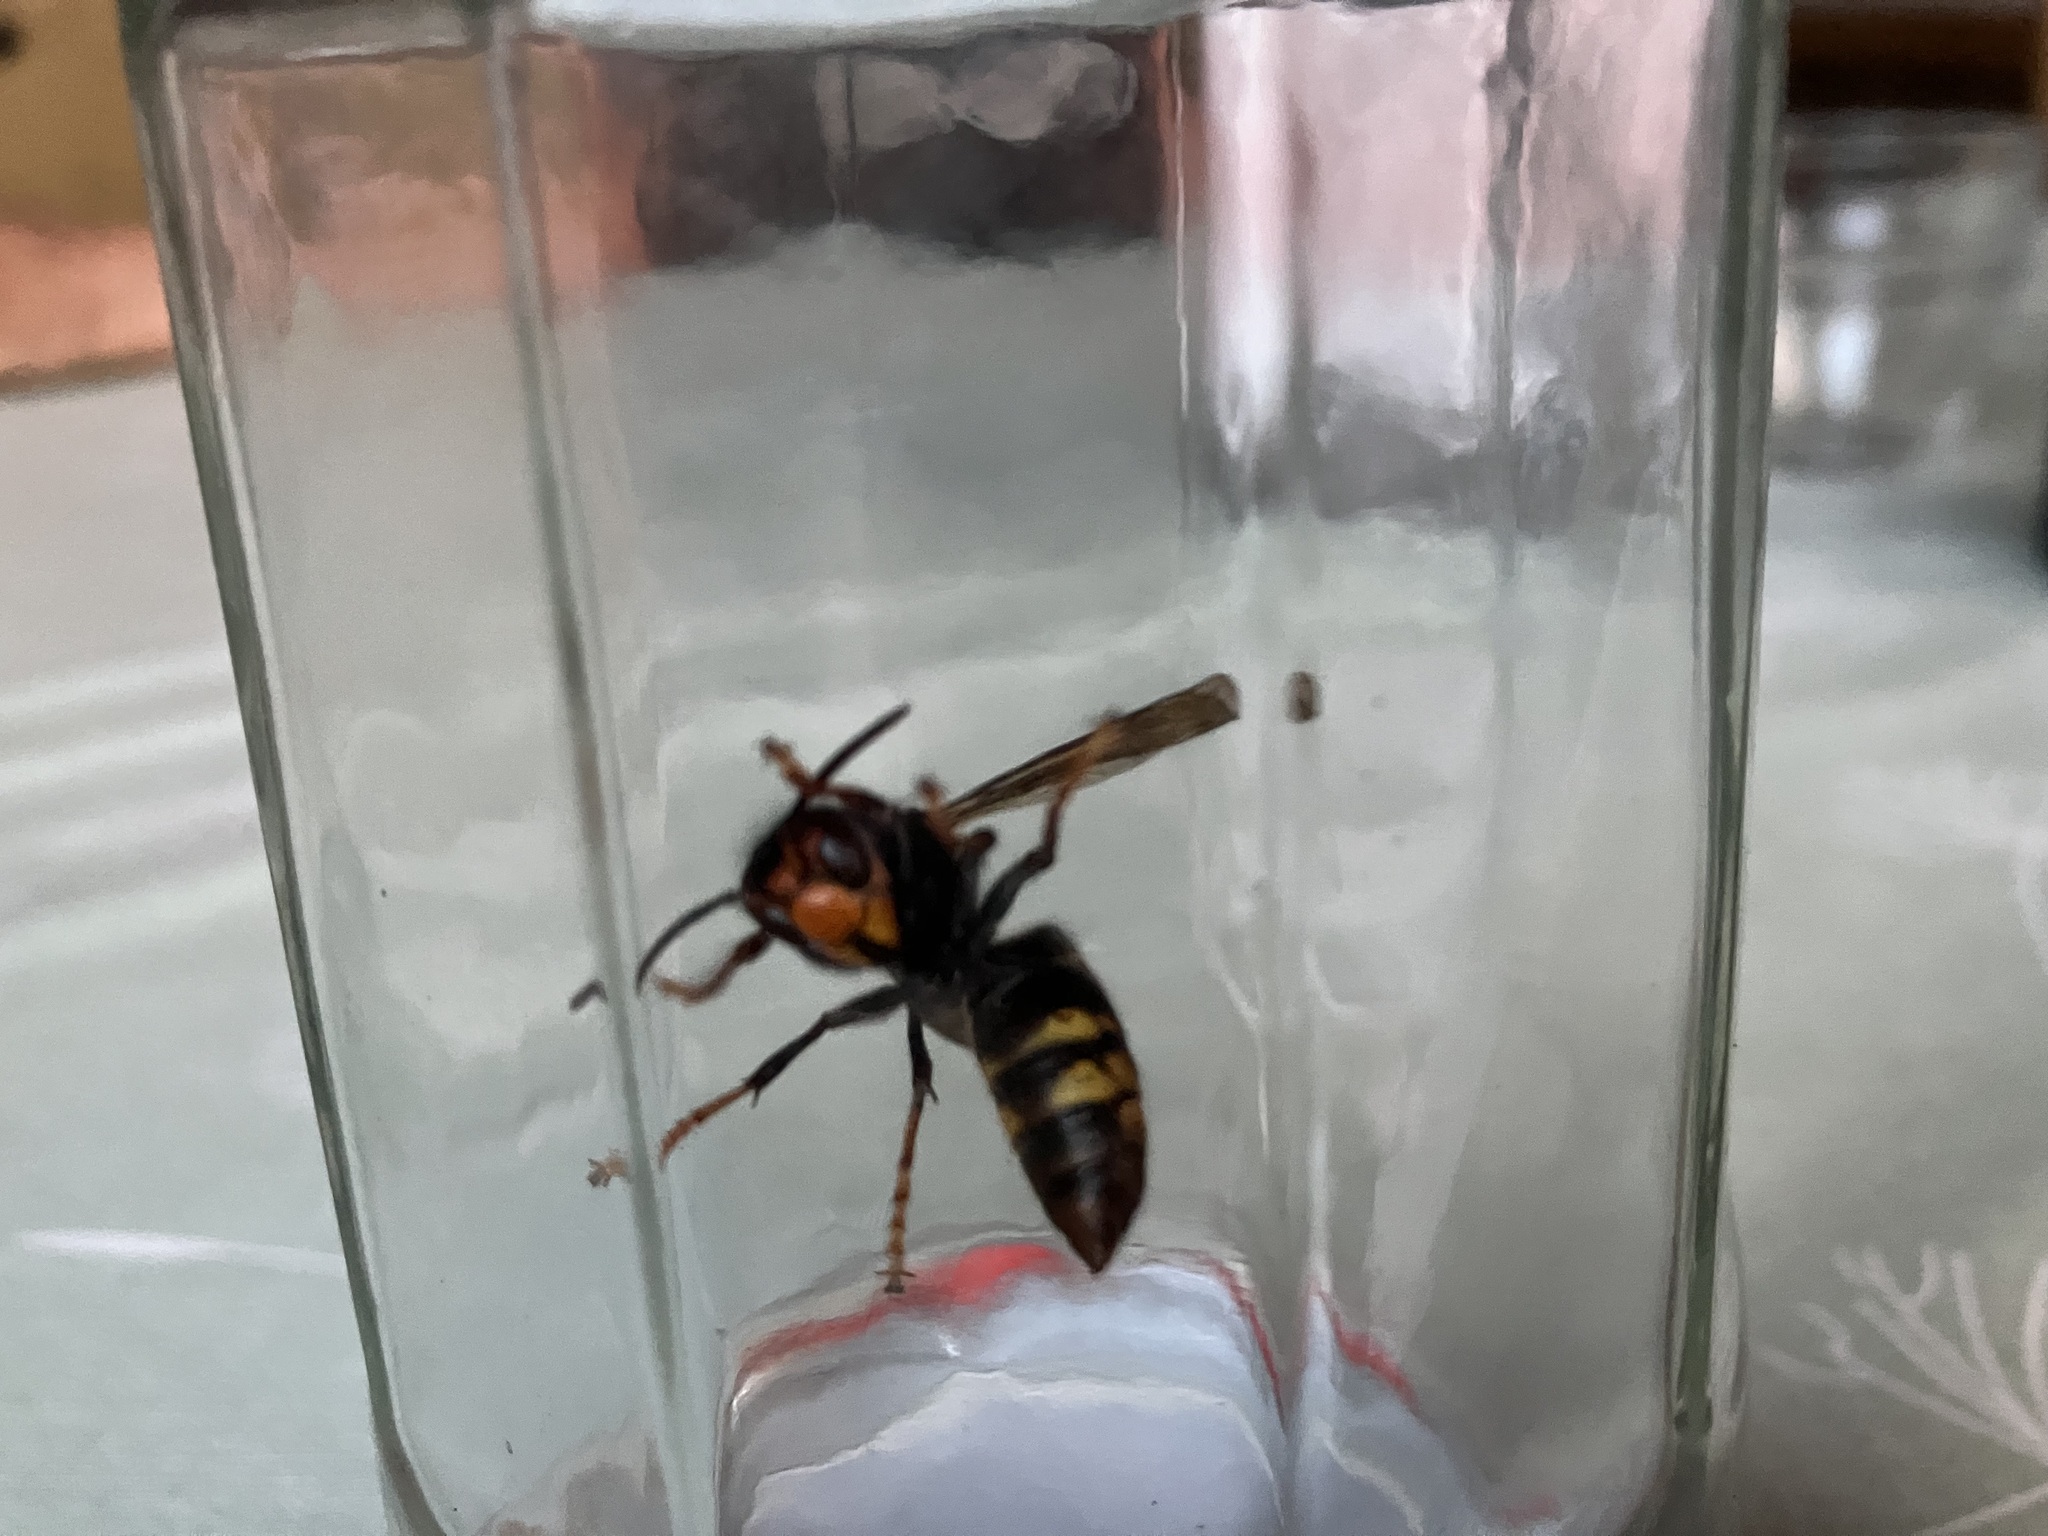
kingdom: Animalia
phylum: Arthropoda
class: Insecta
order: Hymenoptera
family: Vespidae
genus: Vespa
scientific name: Vespa velutina
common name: Asian hornet
